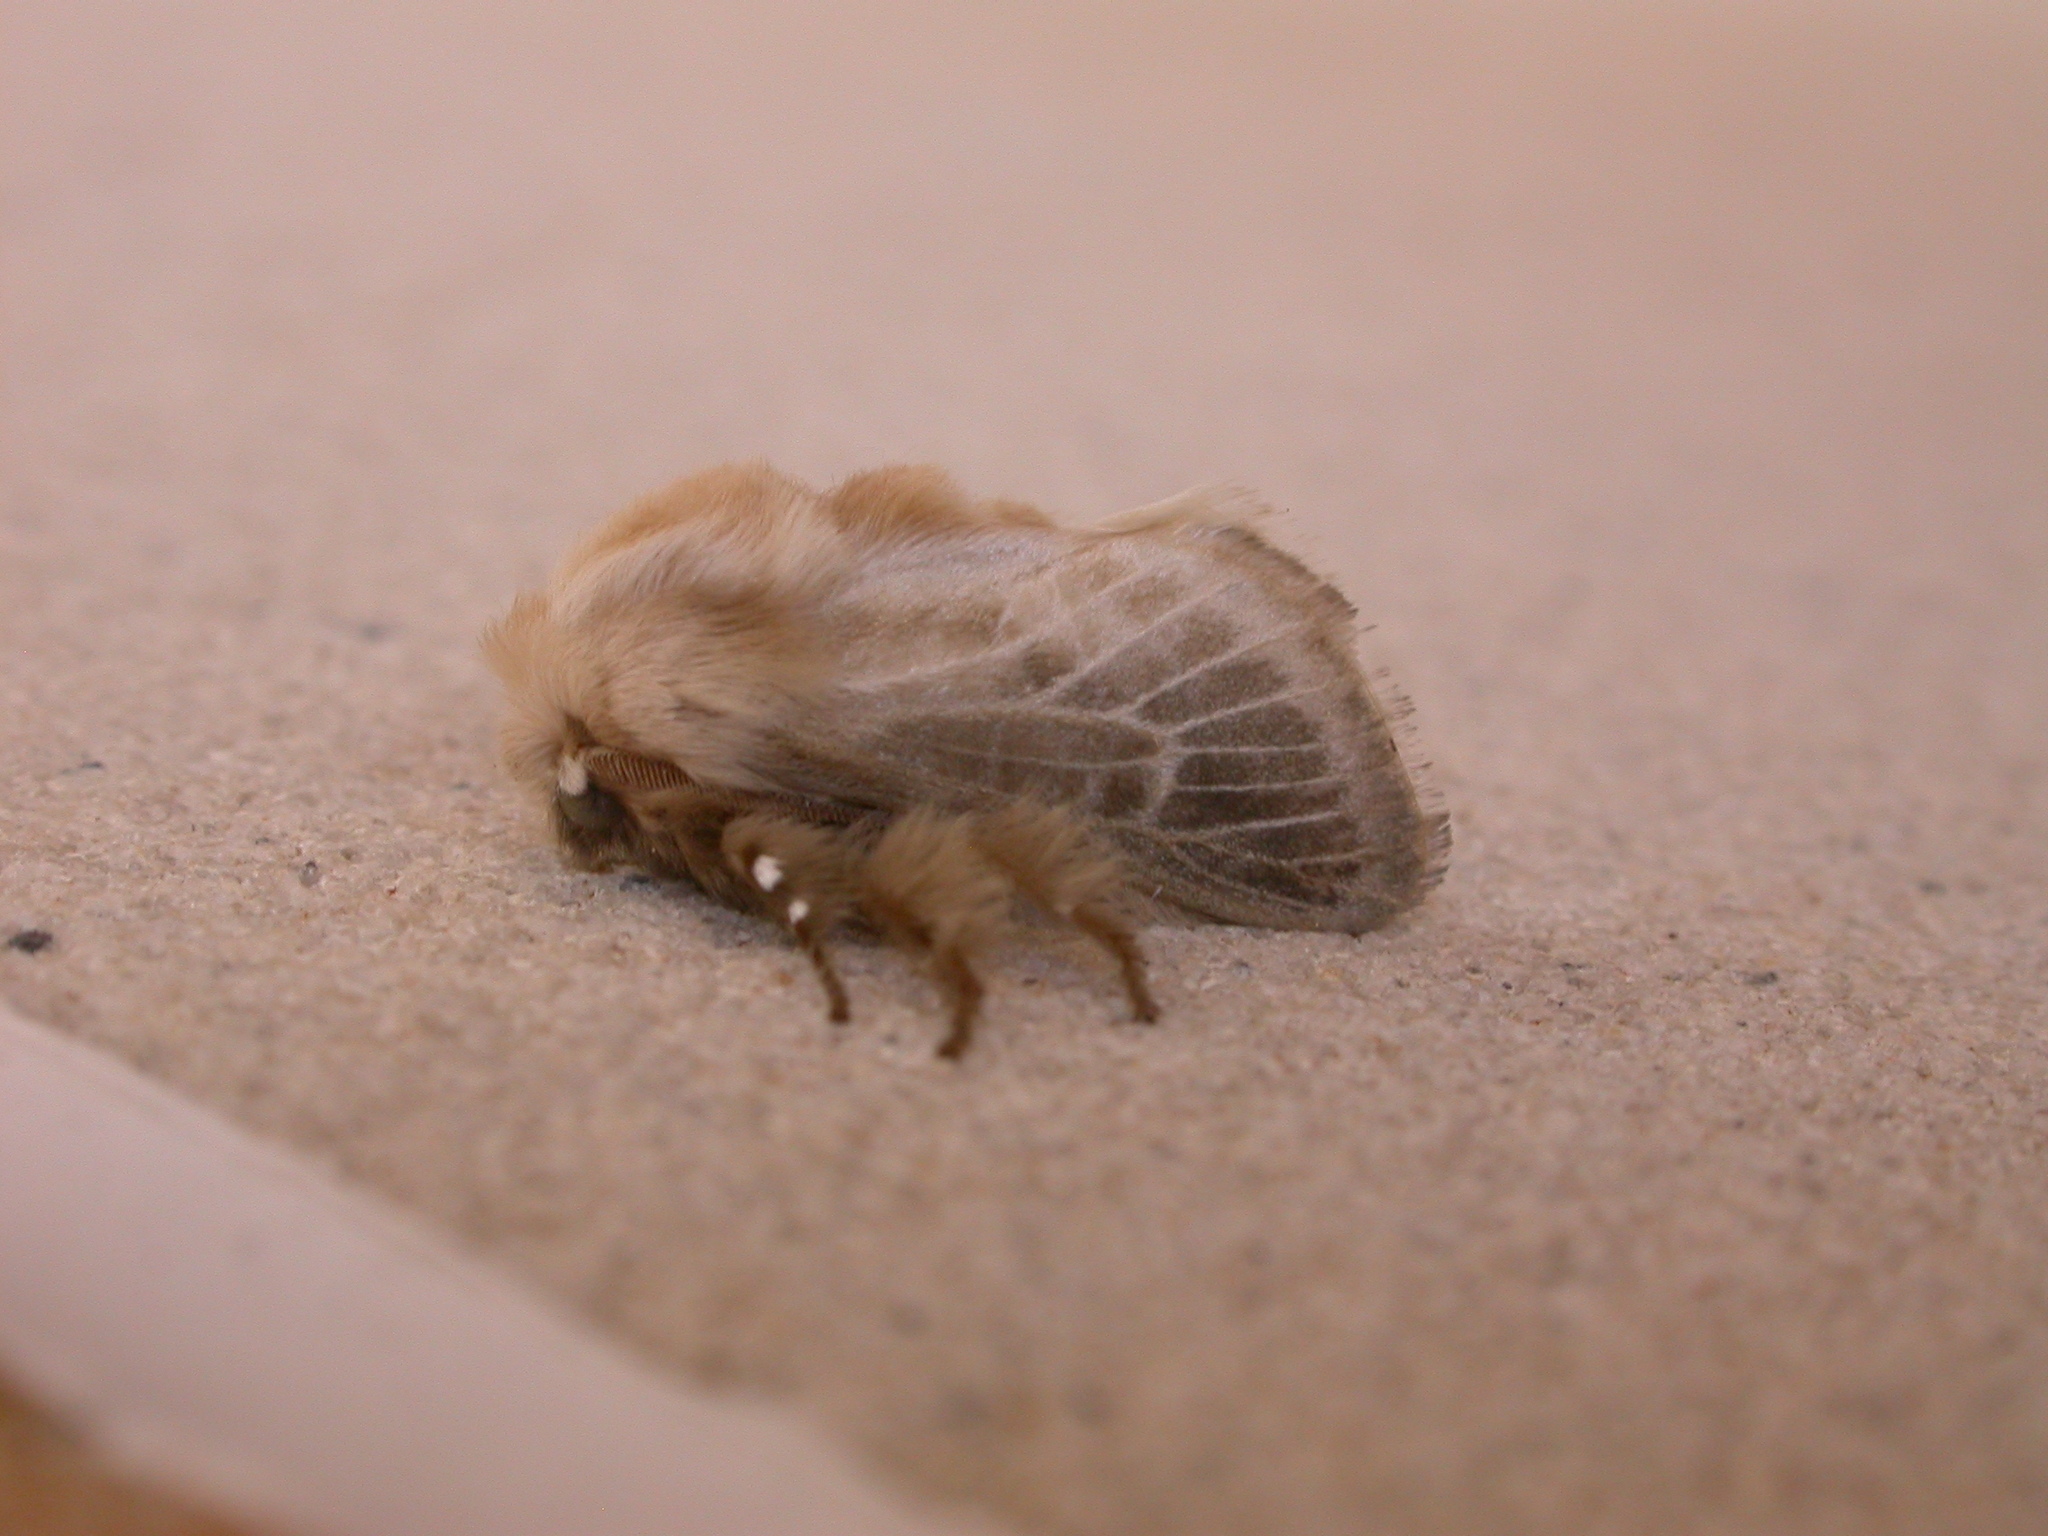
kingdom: Animalia
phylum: Arthropoda
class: Insecta
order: Lepidoptera
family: Limacodidae
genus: Doratifera
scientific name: Doratifera pinguis
